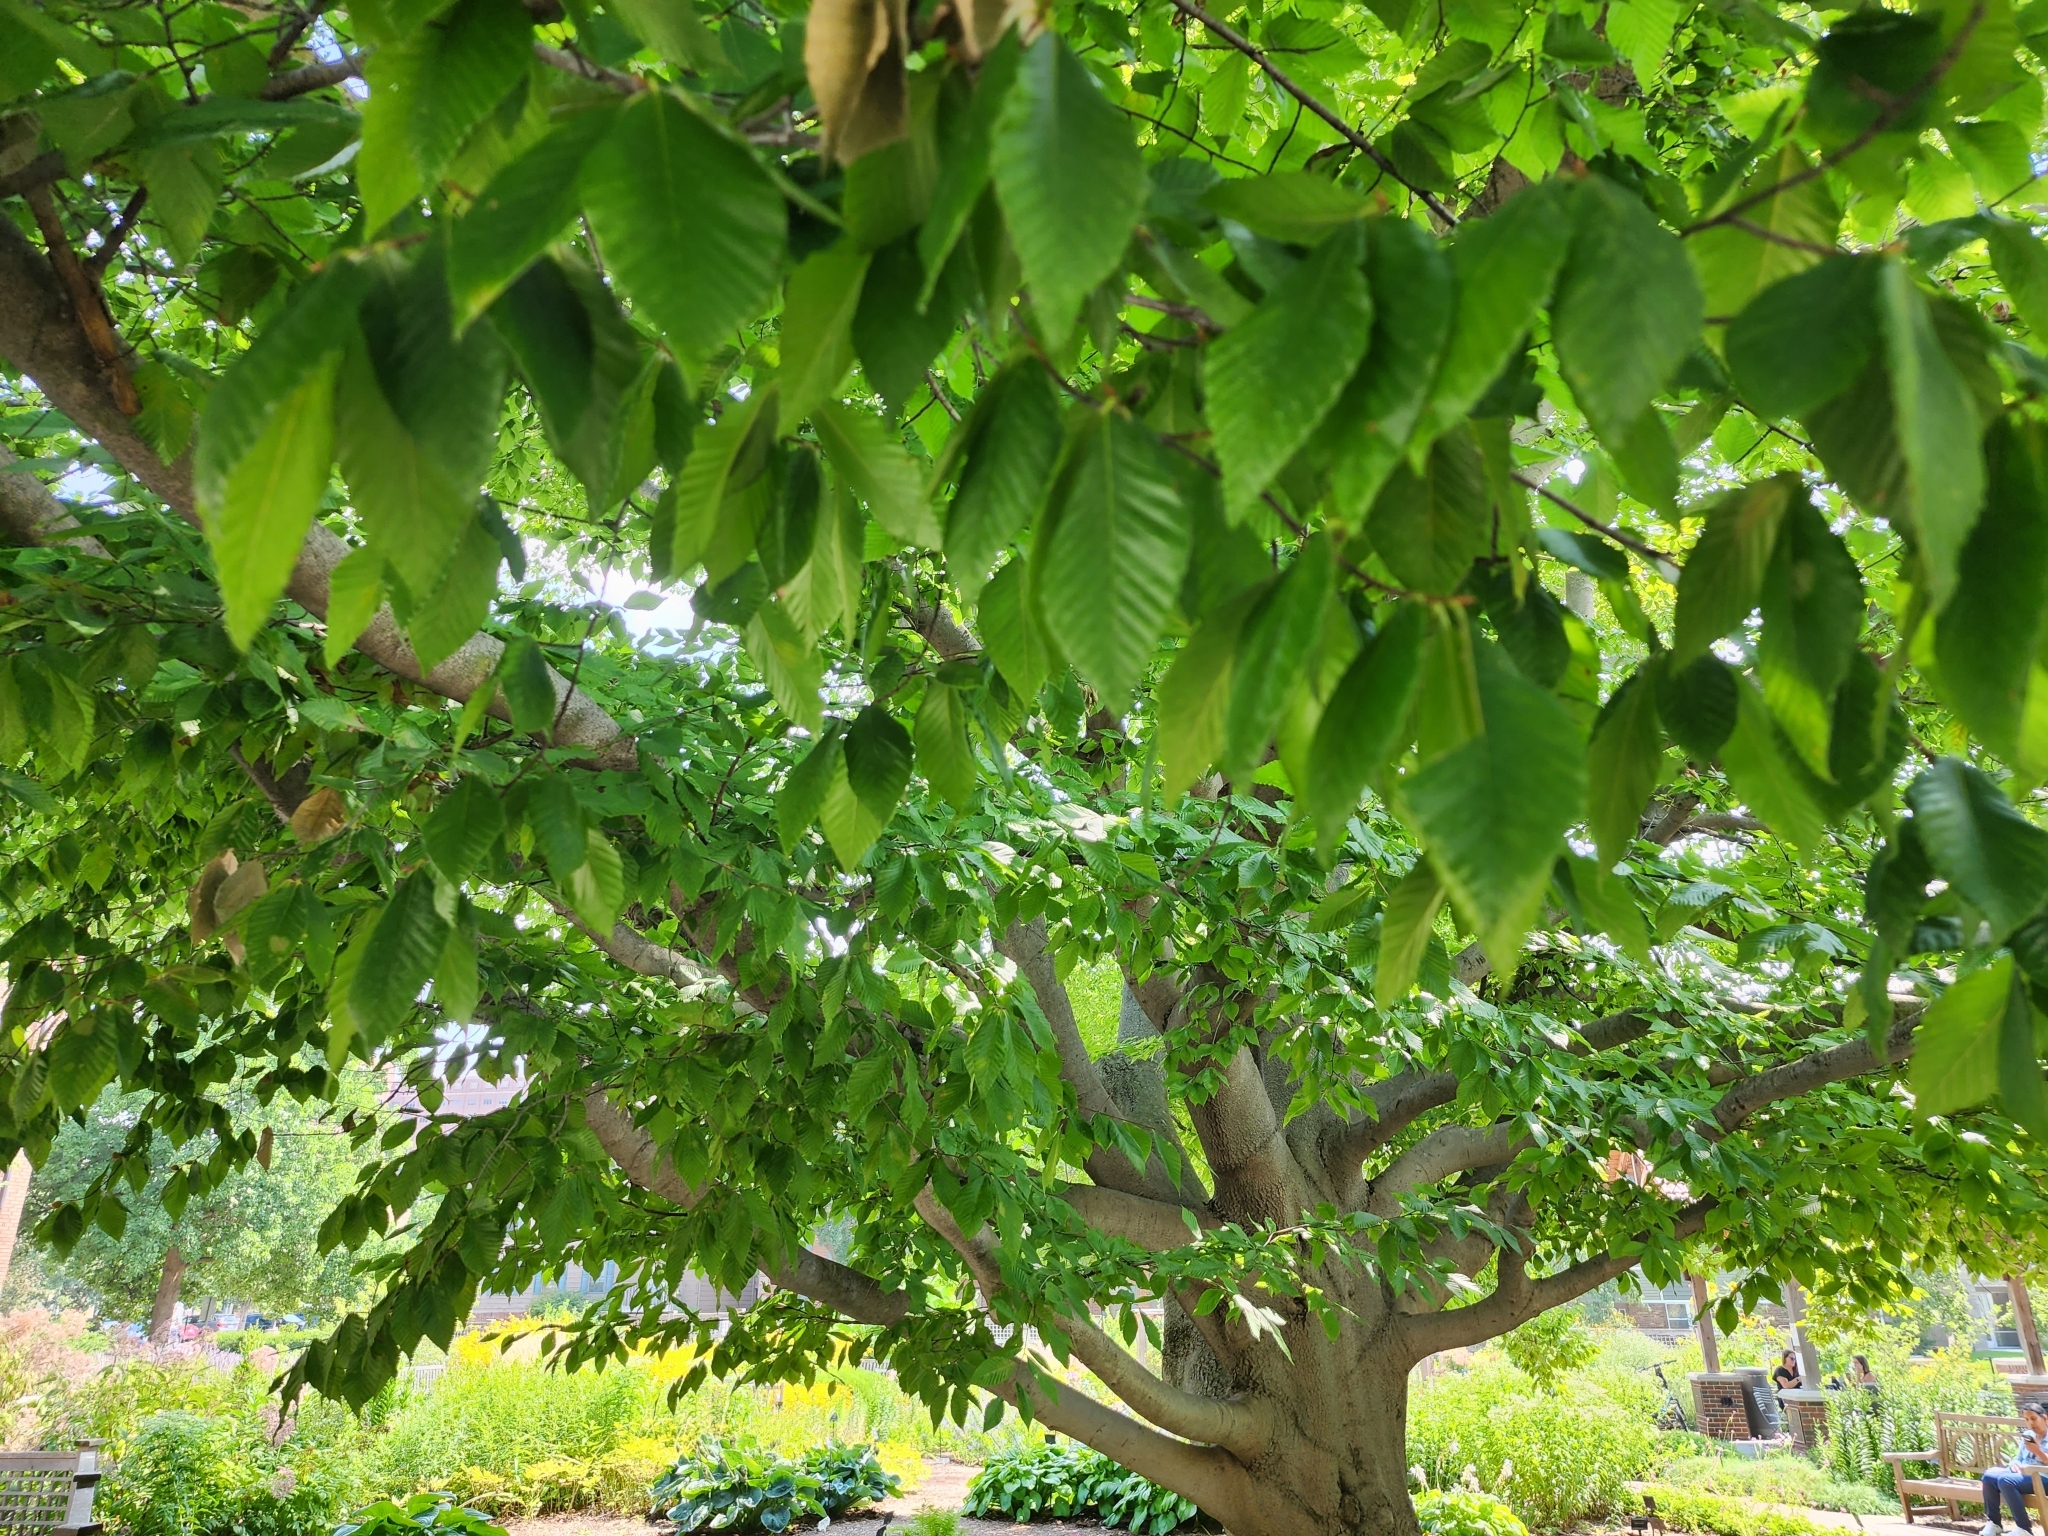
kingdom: Plantae
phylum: Tracheophyta
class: Magnoliopsida
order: Fagales
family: Fagaceae
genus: Fagus
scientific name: Fagus grandifolia
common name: American beech
